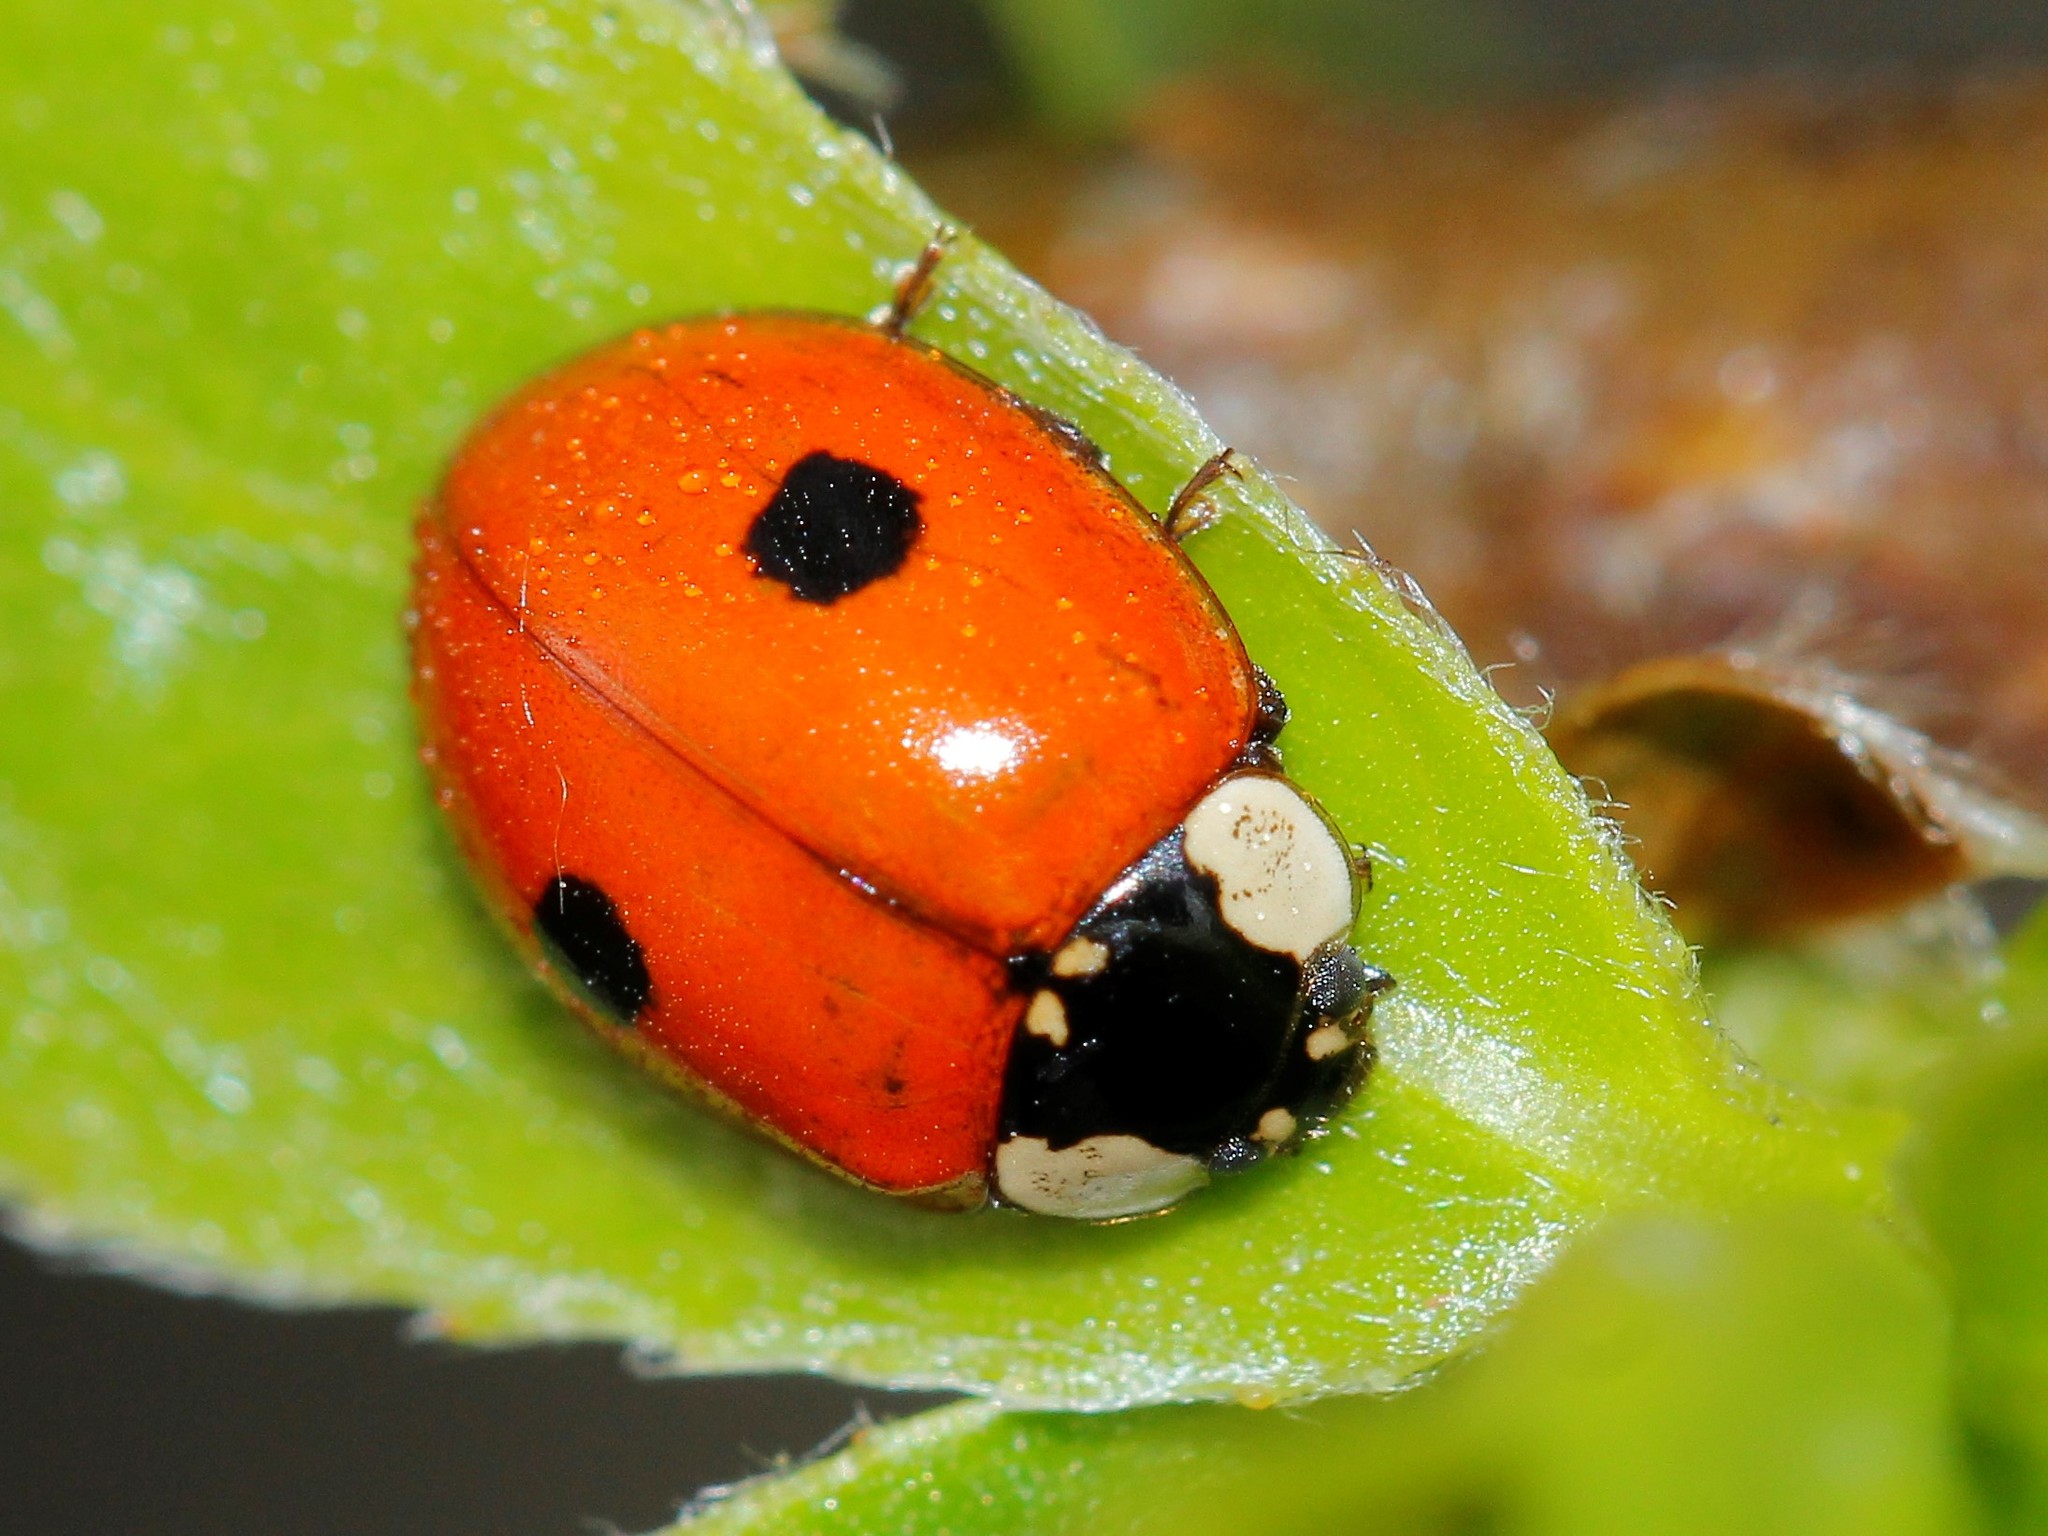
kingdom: Animalia
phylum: Arthropoda
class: Insecta
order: Coleoptera
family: Coccinellidae
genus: Adalia
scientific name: Adalia bipunctata
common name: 2-spot ladybird
